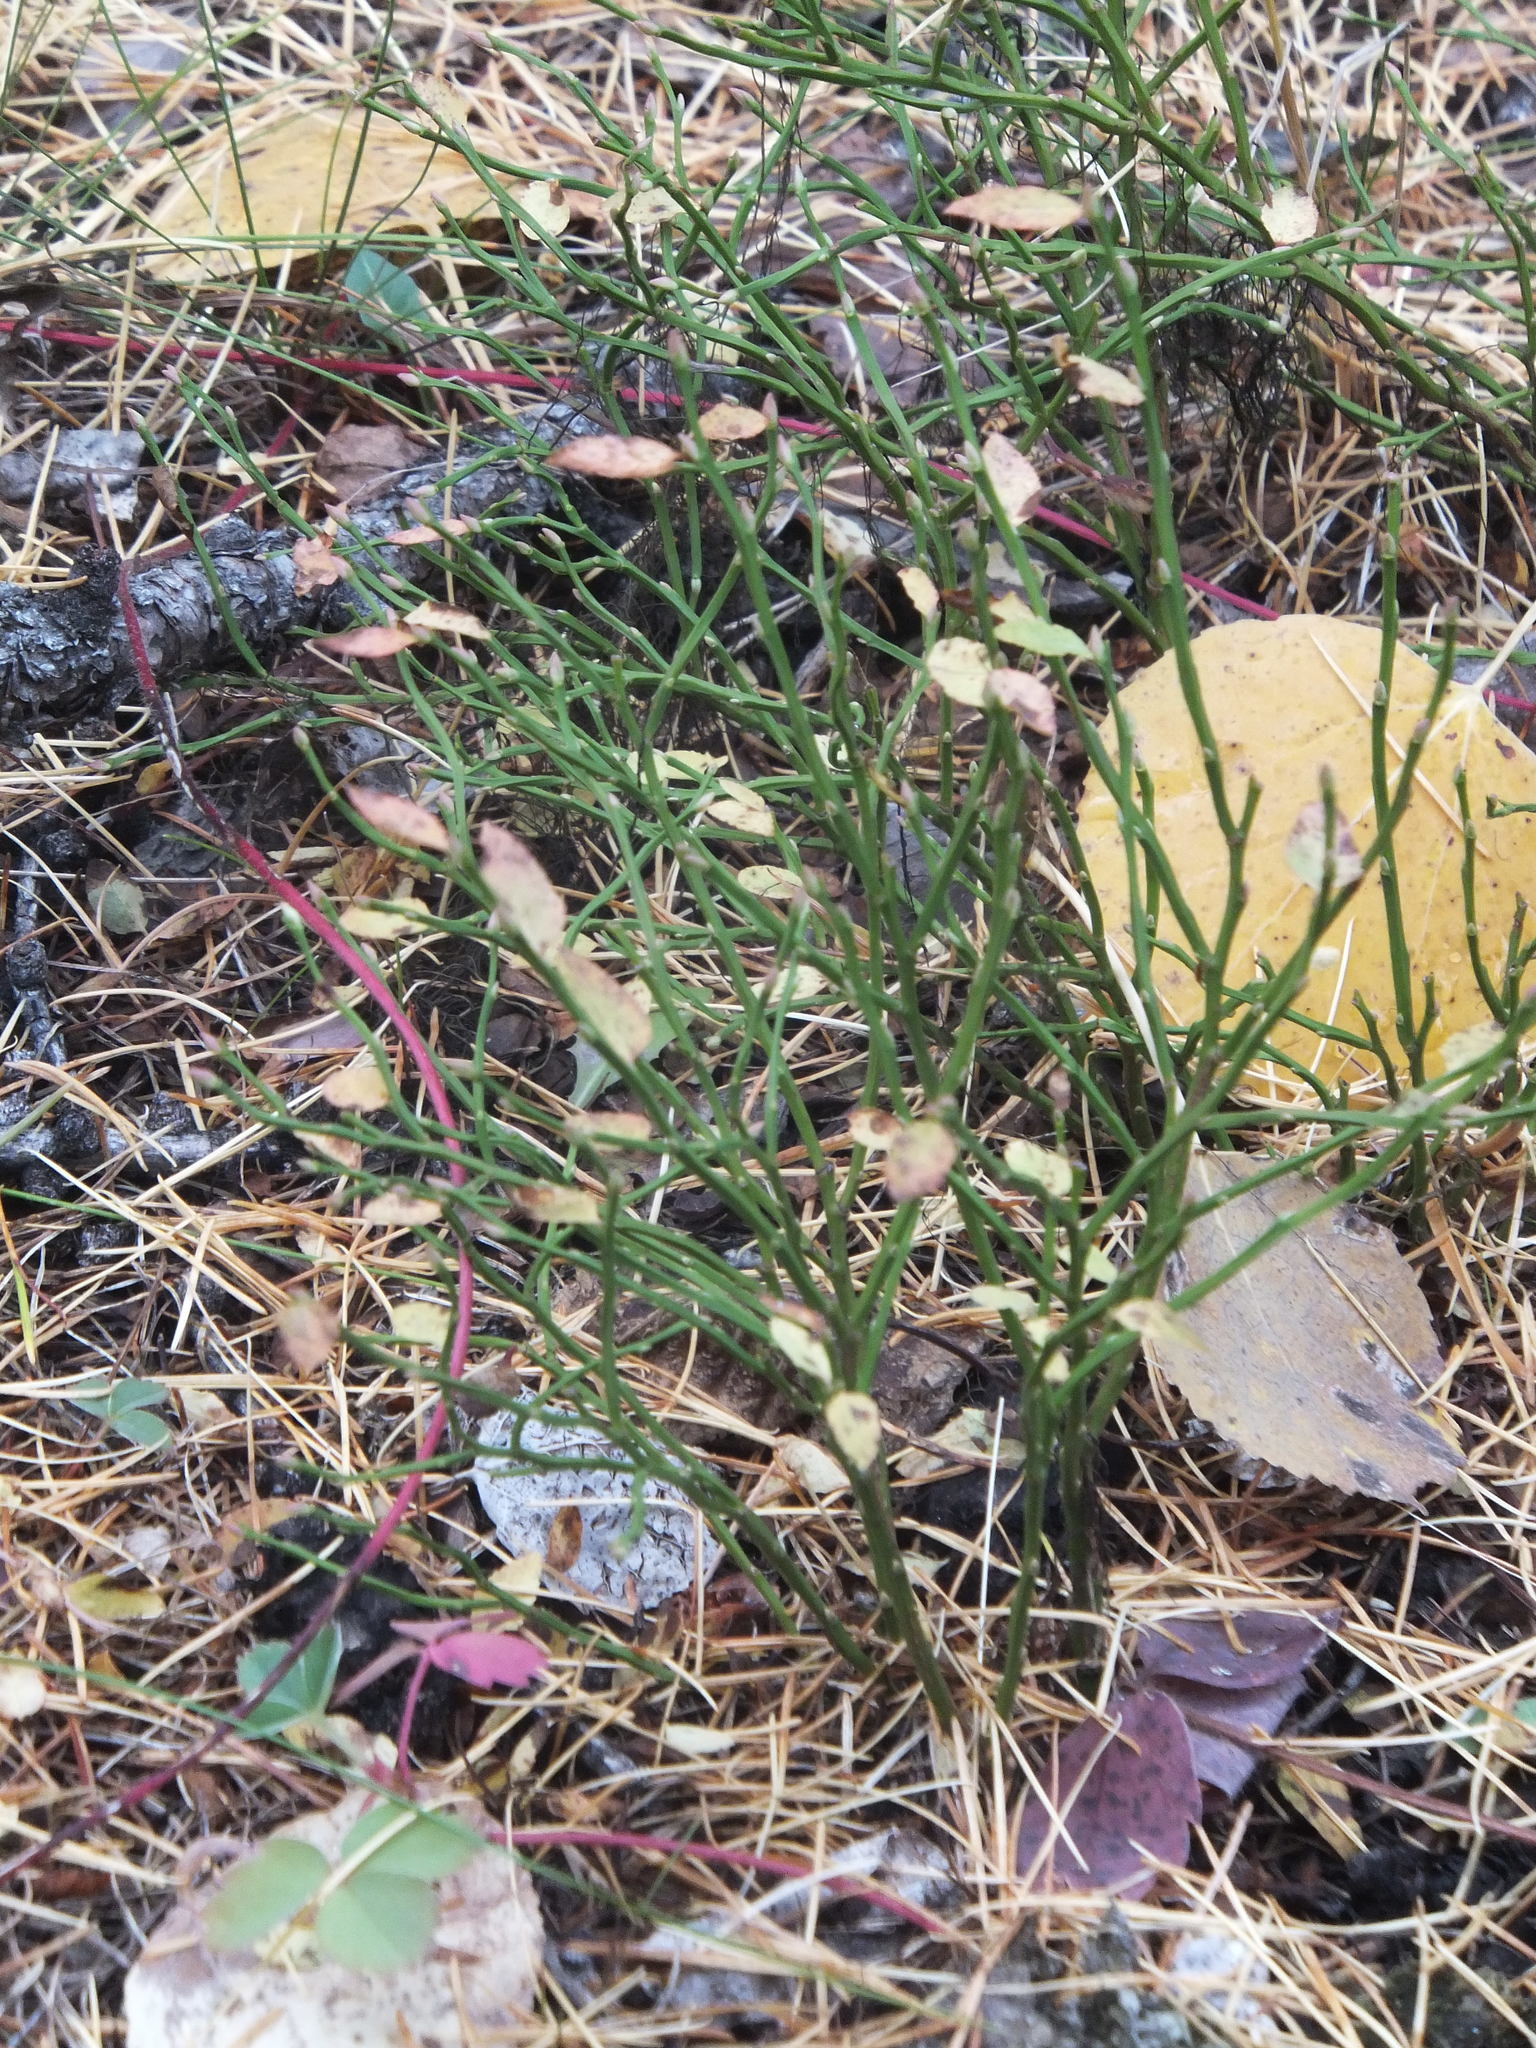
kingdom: Plantae
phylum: Tracheophyta
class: Magnoliopsida
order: Ericales
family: Ericaceae
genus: Vaccinium
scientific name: Vaccinium scoparium
